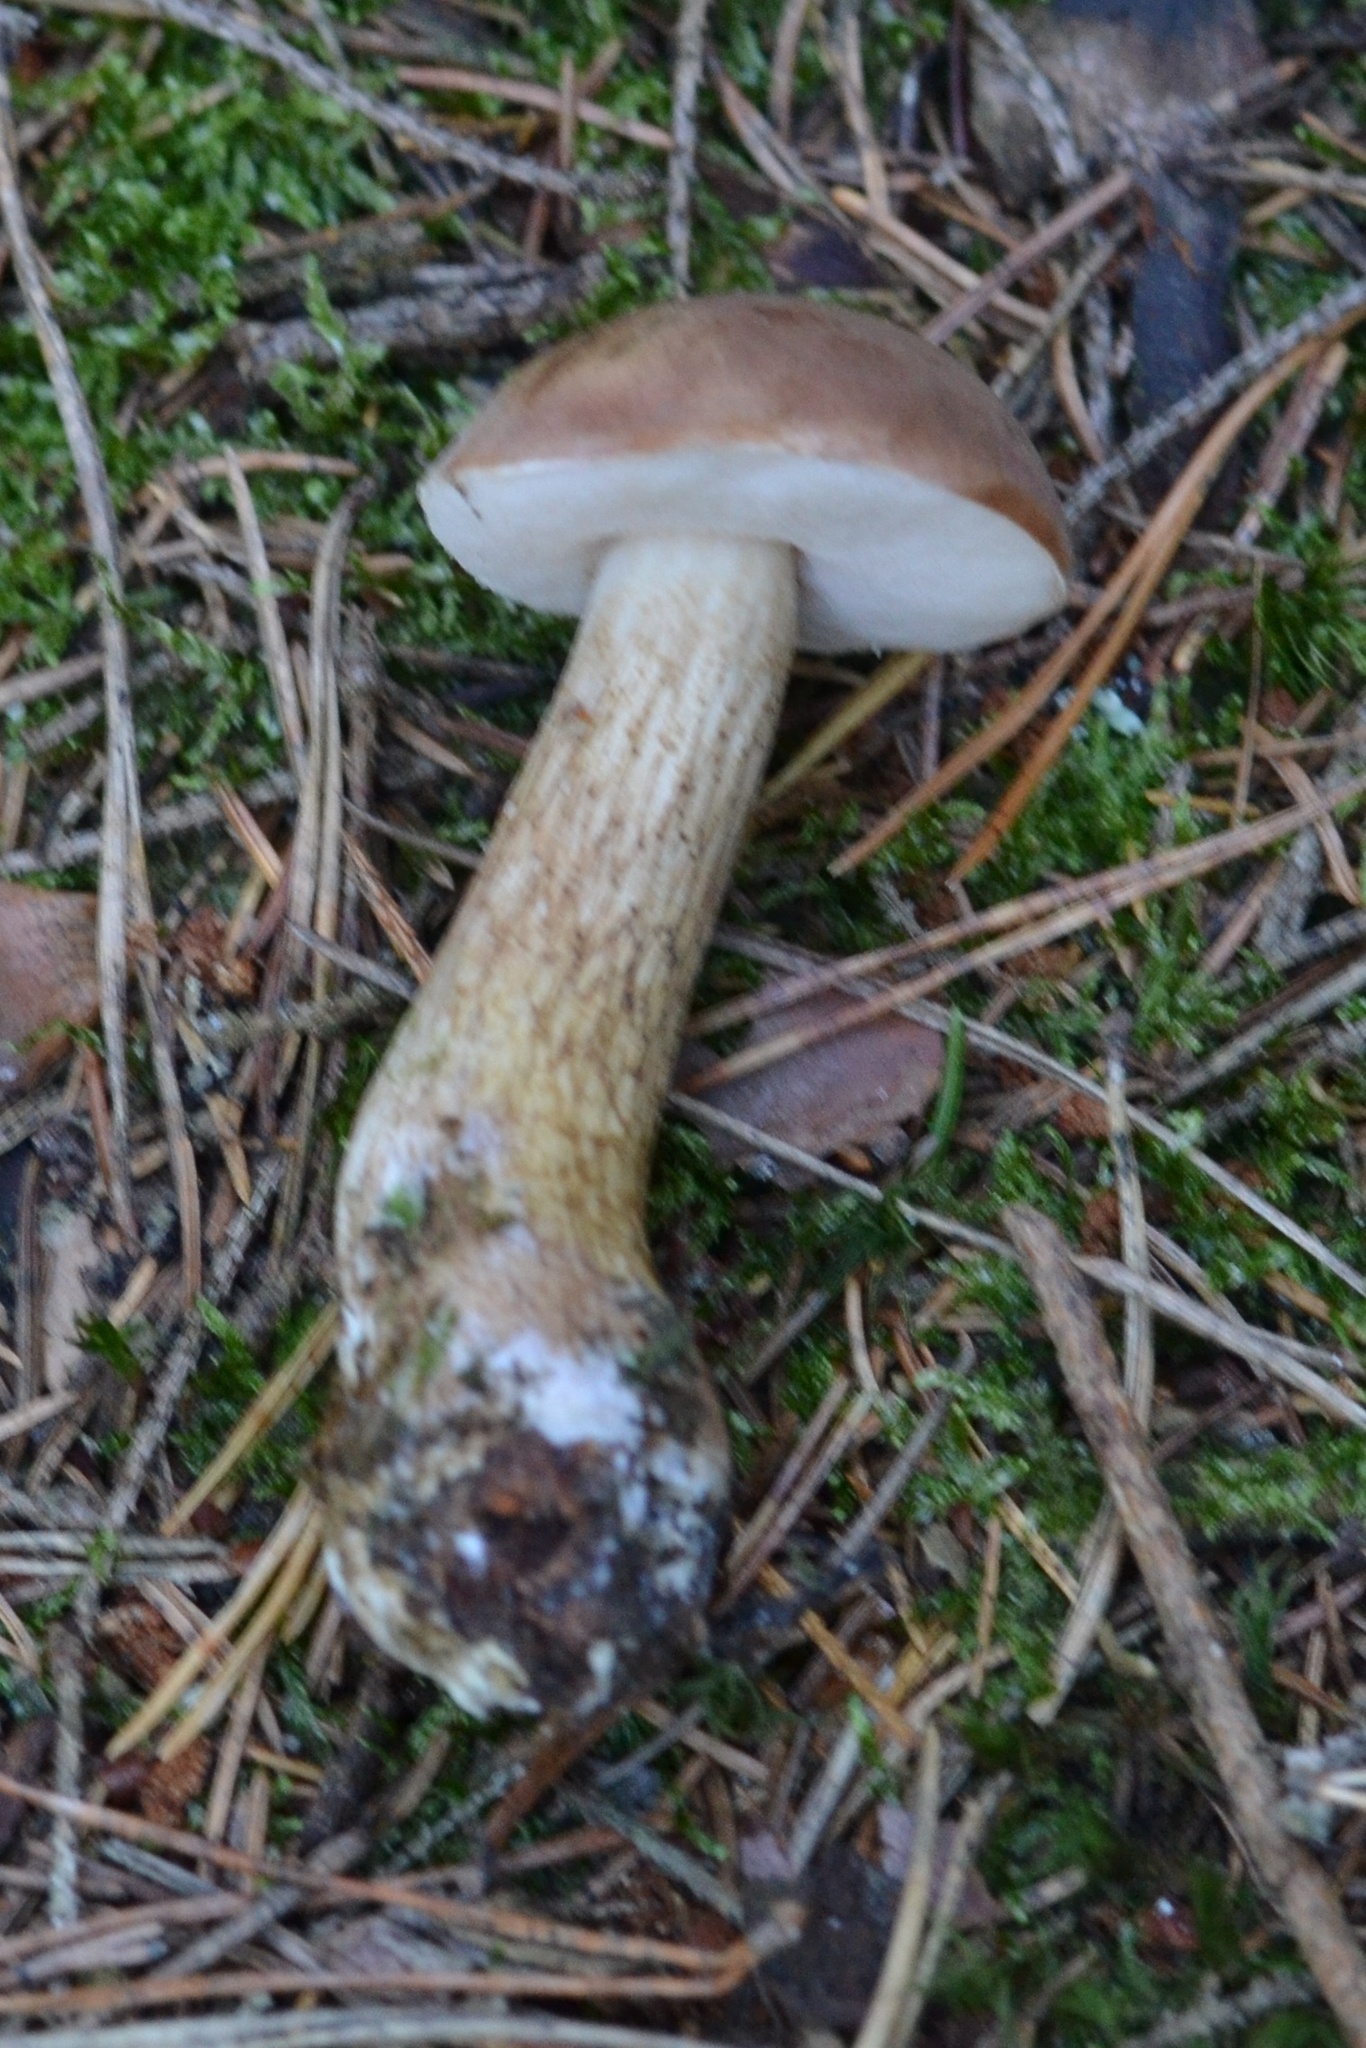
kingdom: Fungi
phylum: Basidiomycota
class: Agaricomycetes
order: Boletales
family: Boletaceae
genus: Tylopilus
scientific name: Tylopilus felleus
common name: Bitter bolete
